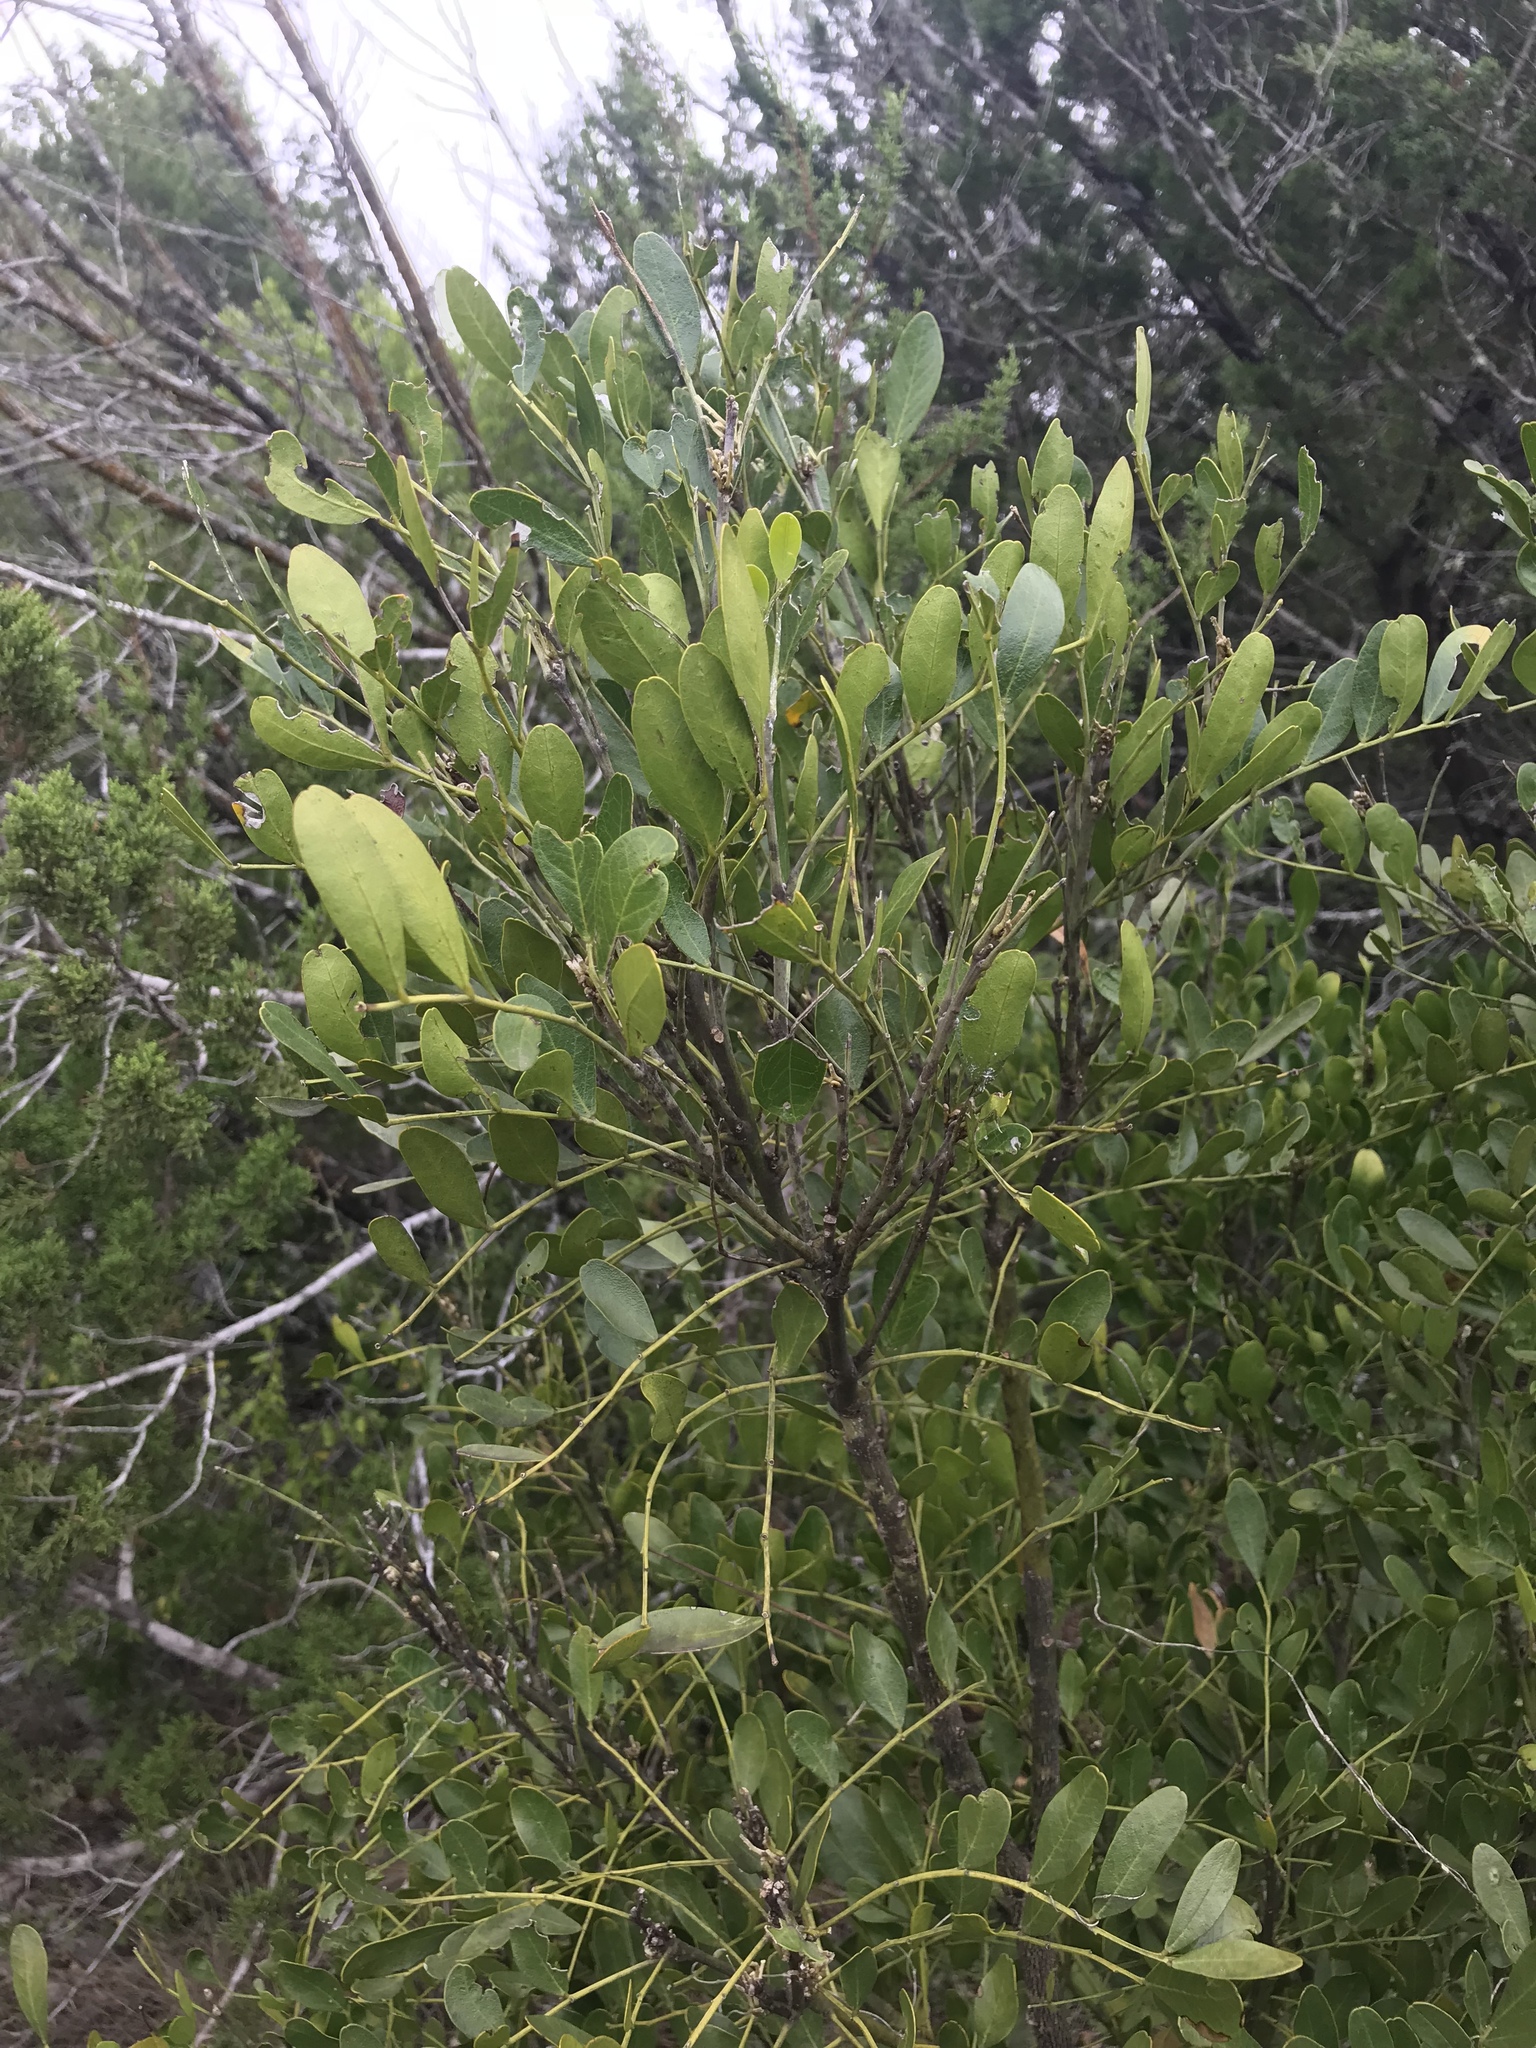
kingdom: Plantae
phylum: Tracheophyta
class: Magnoliopsida
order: Fabales
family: Fabaceae
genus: Dermatophyllum
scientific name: Dermatophyllum secundiflorum
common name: Texas-mountain-laurel
